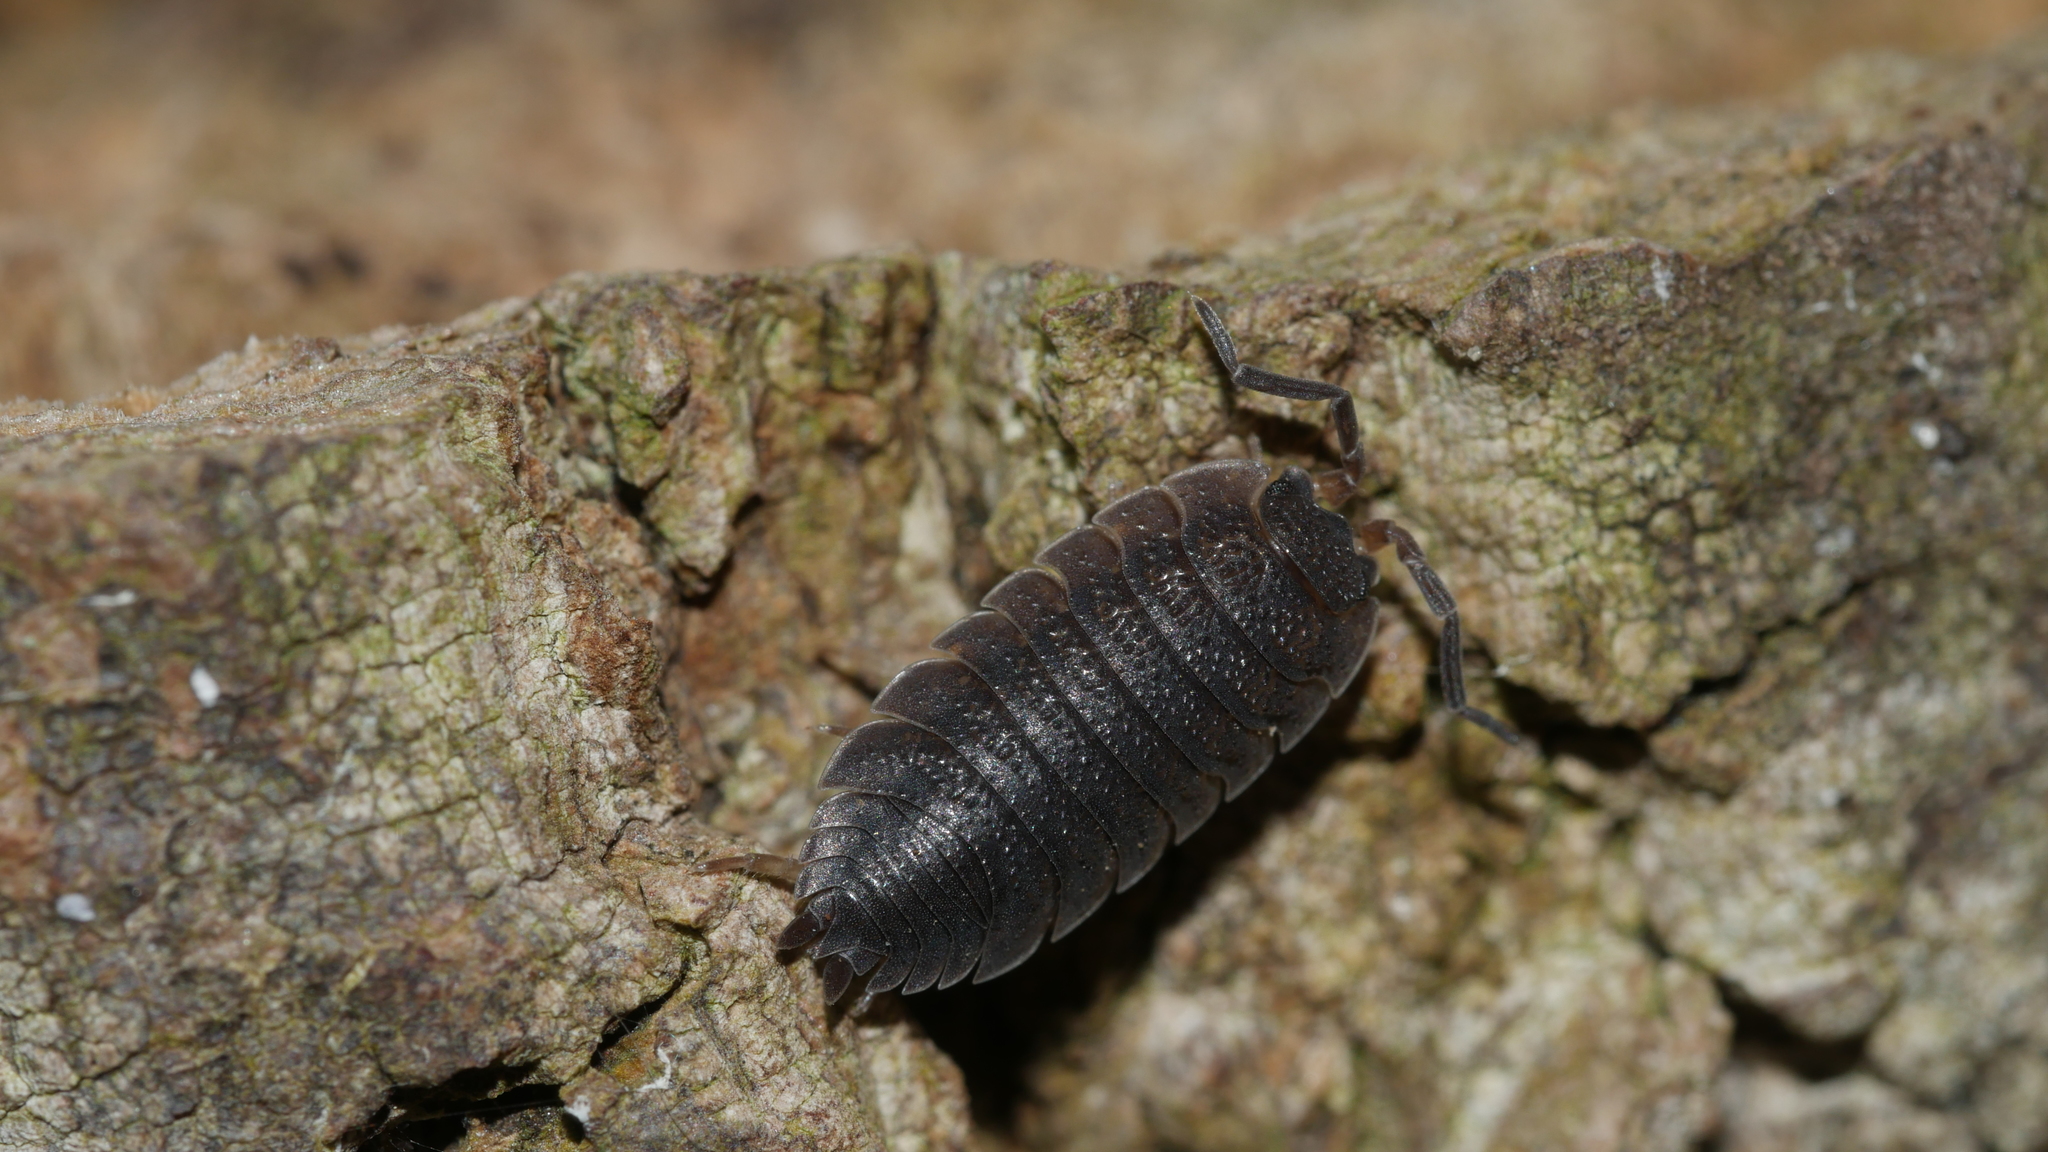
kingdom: Animalia
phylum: Arthropoda
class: Malacostraca
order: Isopoda
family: Porcellionidae
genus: Porcellio
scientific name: Porcellio scaber
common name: Common rough woodlouse
